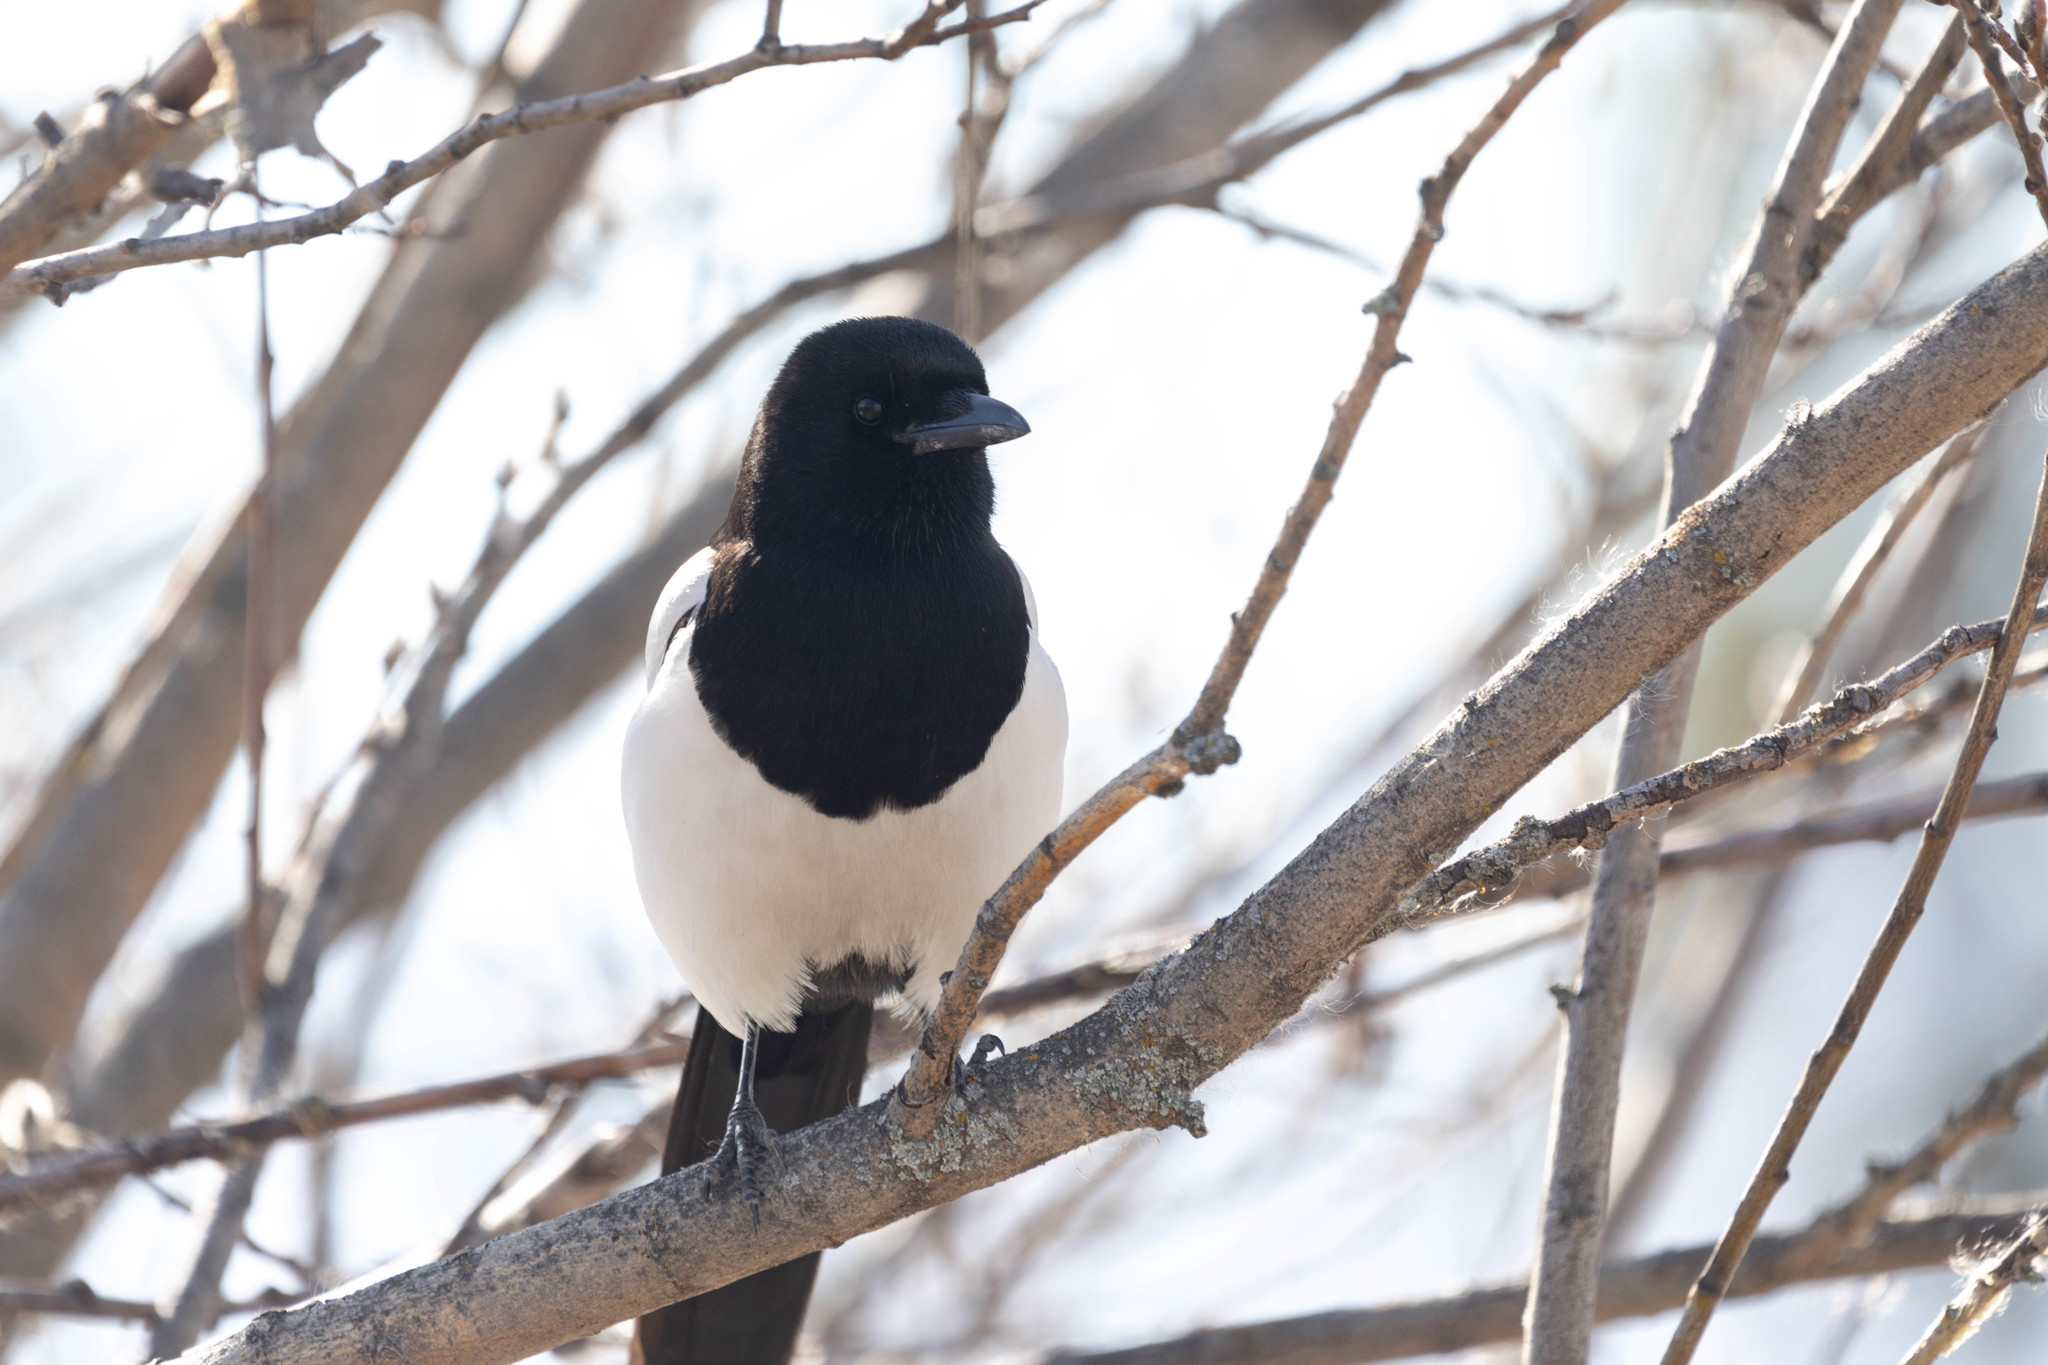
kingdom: Animalia
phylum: Chordata
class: Aves
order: Passeriformes
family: Corvidae
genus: Pica
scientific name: Pica hudsonia
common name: Black-billed magpie
